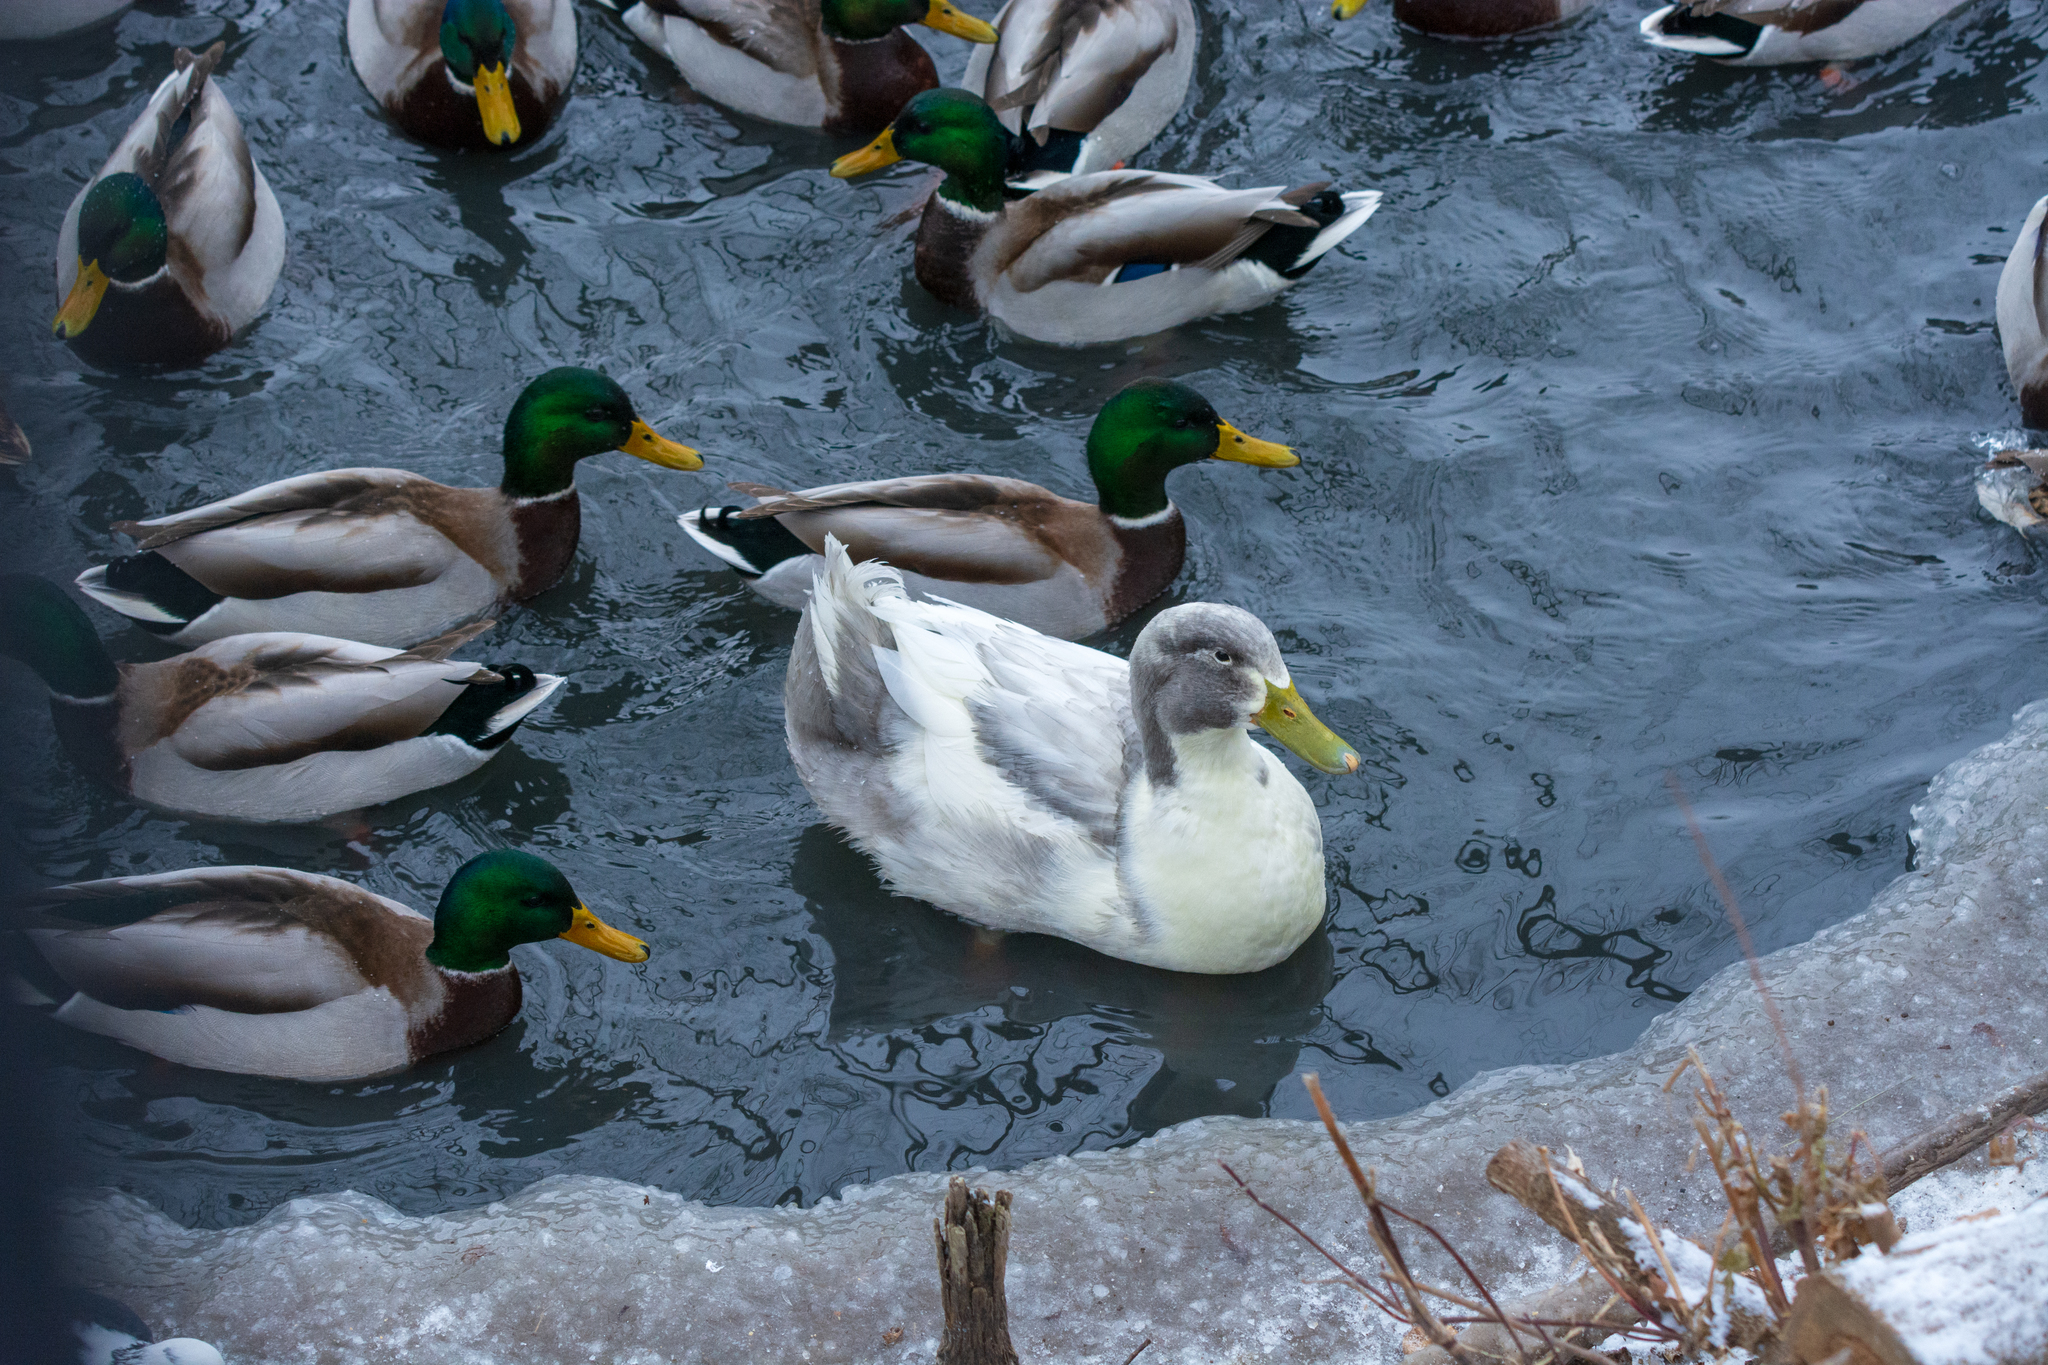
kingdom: Animalia
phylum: Chordata
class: Aves
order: Anseriformes
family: Anatidae
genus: Anas
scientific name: Anas platyrhynchos
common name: Mallard
